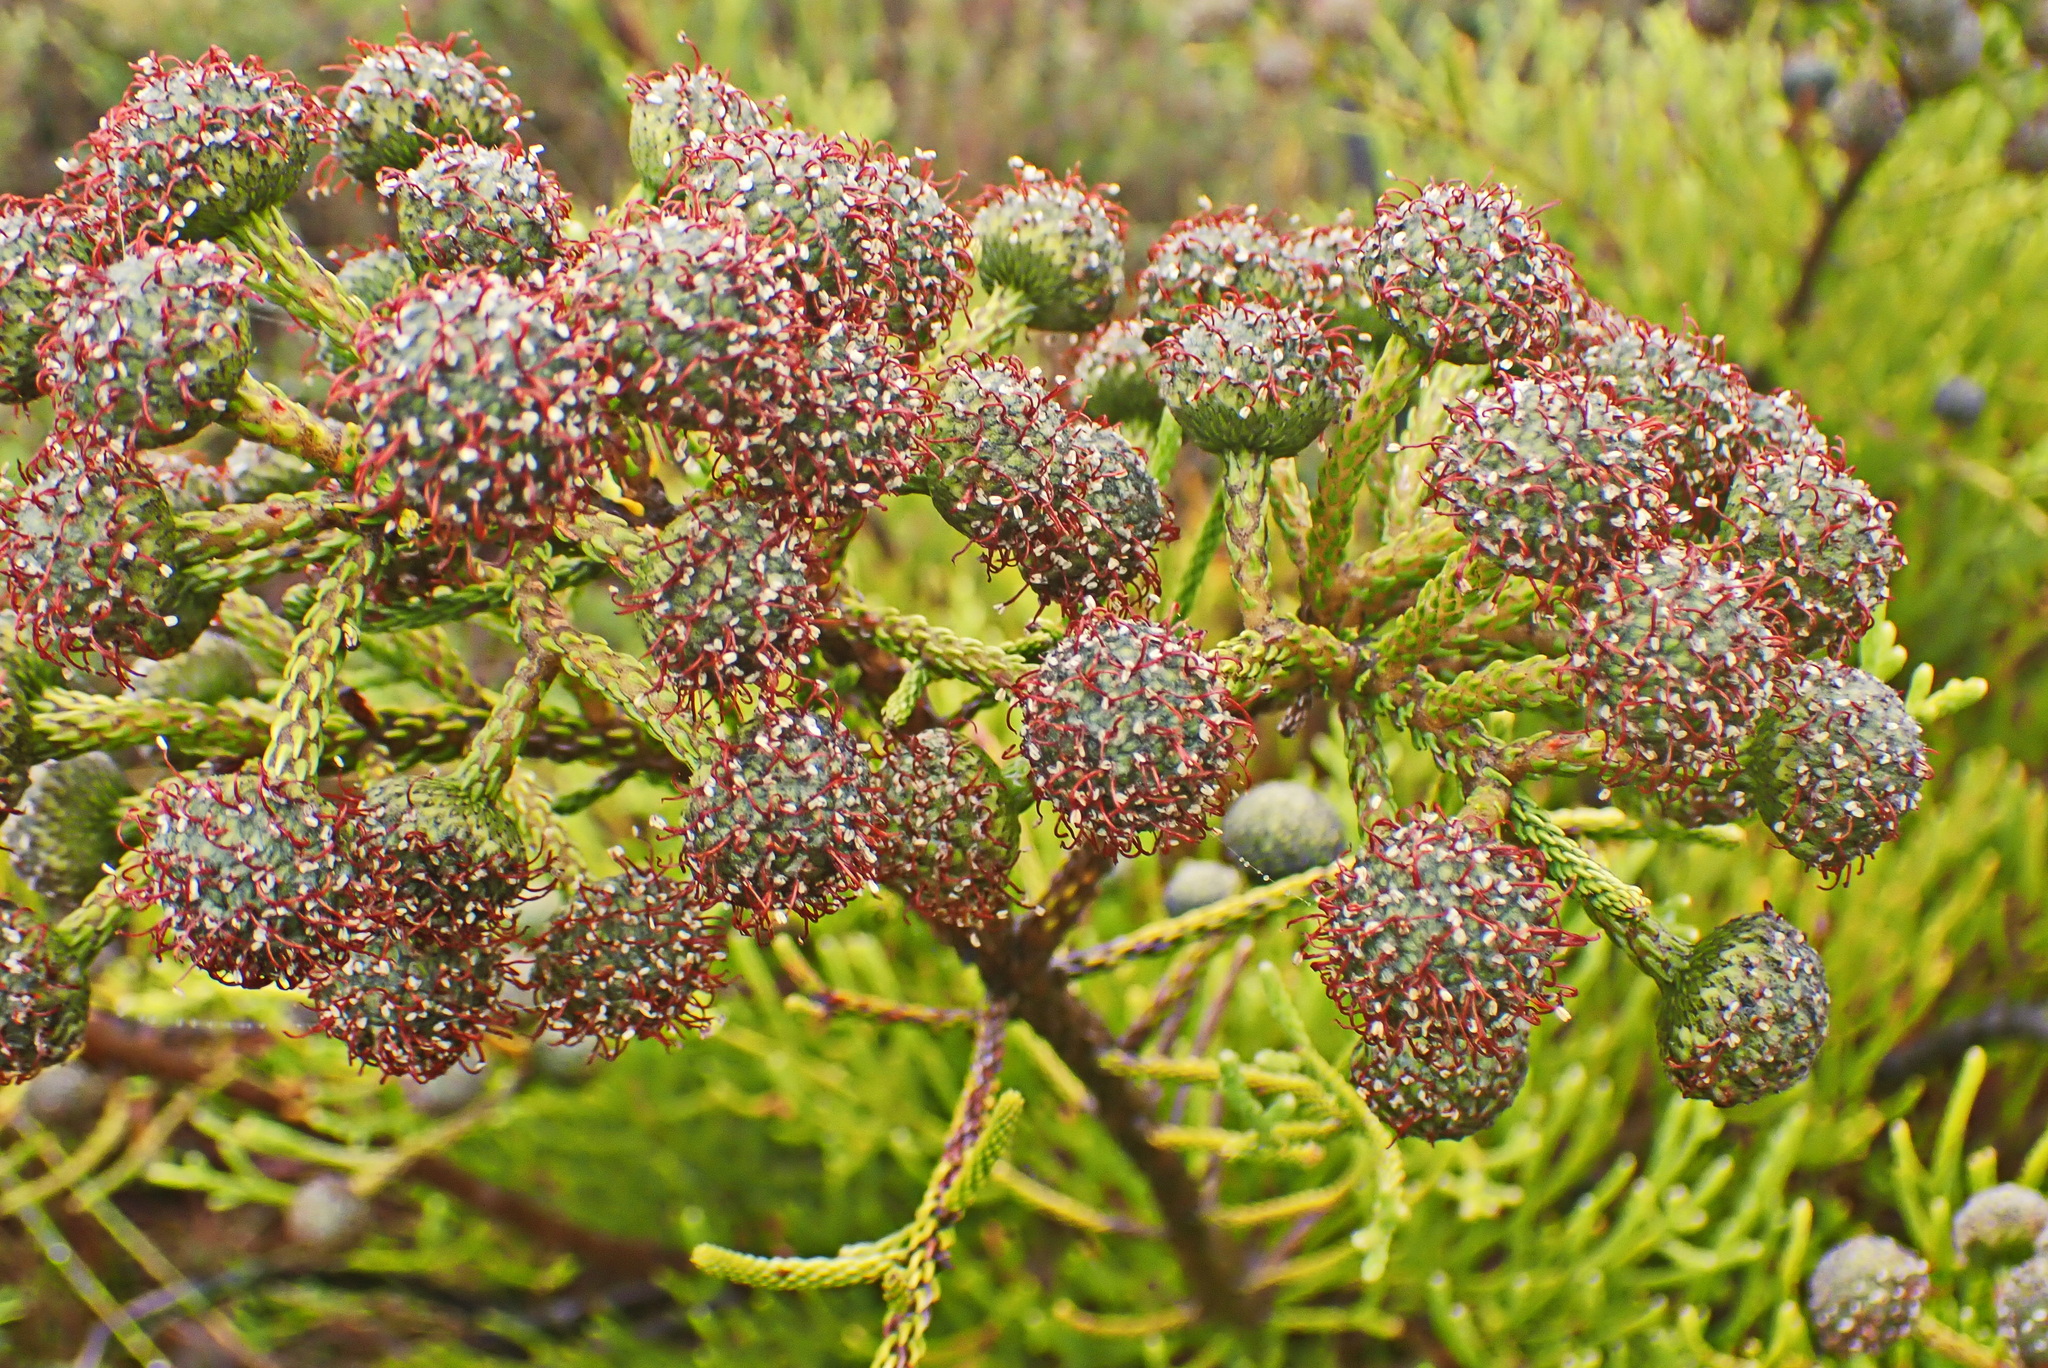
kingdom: Plantae
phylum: Tracheophyta
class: Magnoliopsida
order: Bruniales
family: Bruniaceae
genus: Brunia
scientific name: Brunia noduliflora
